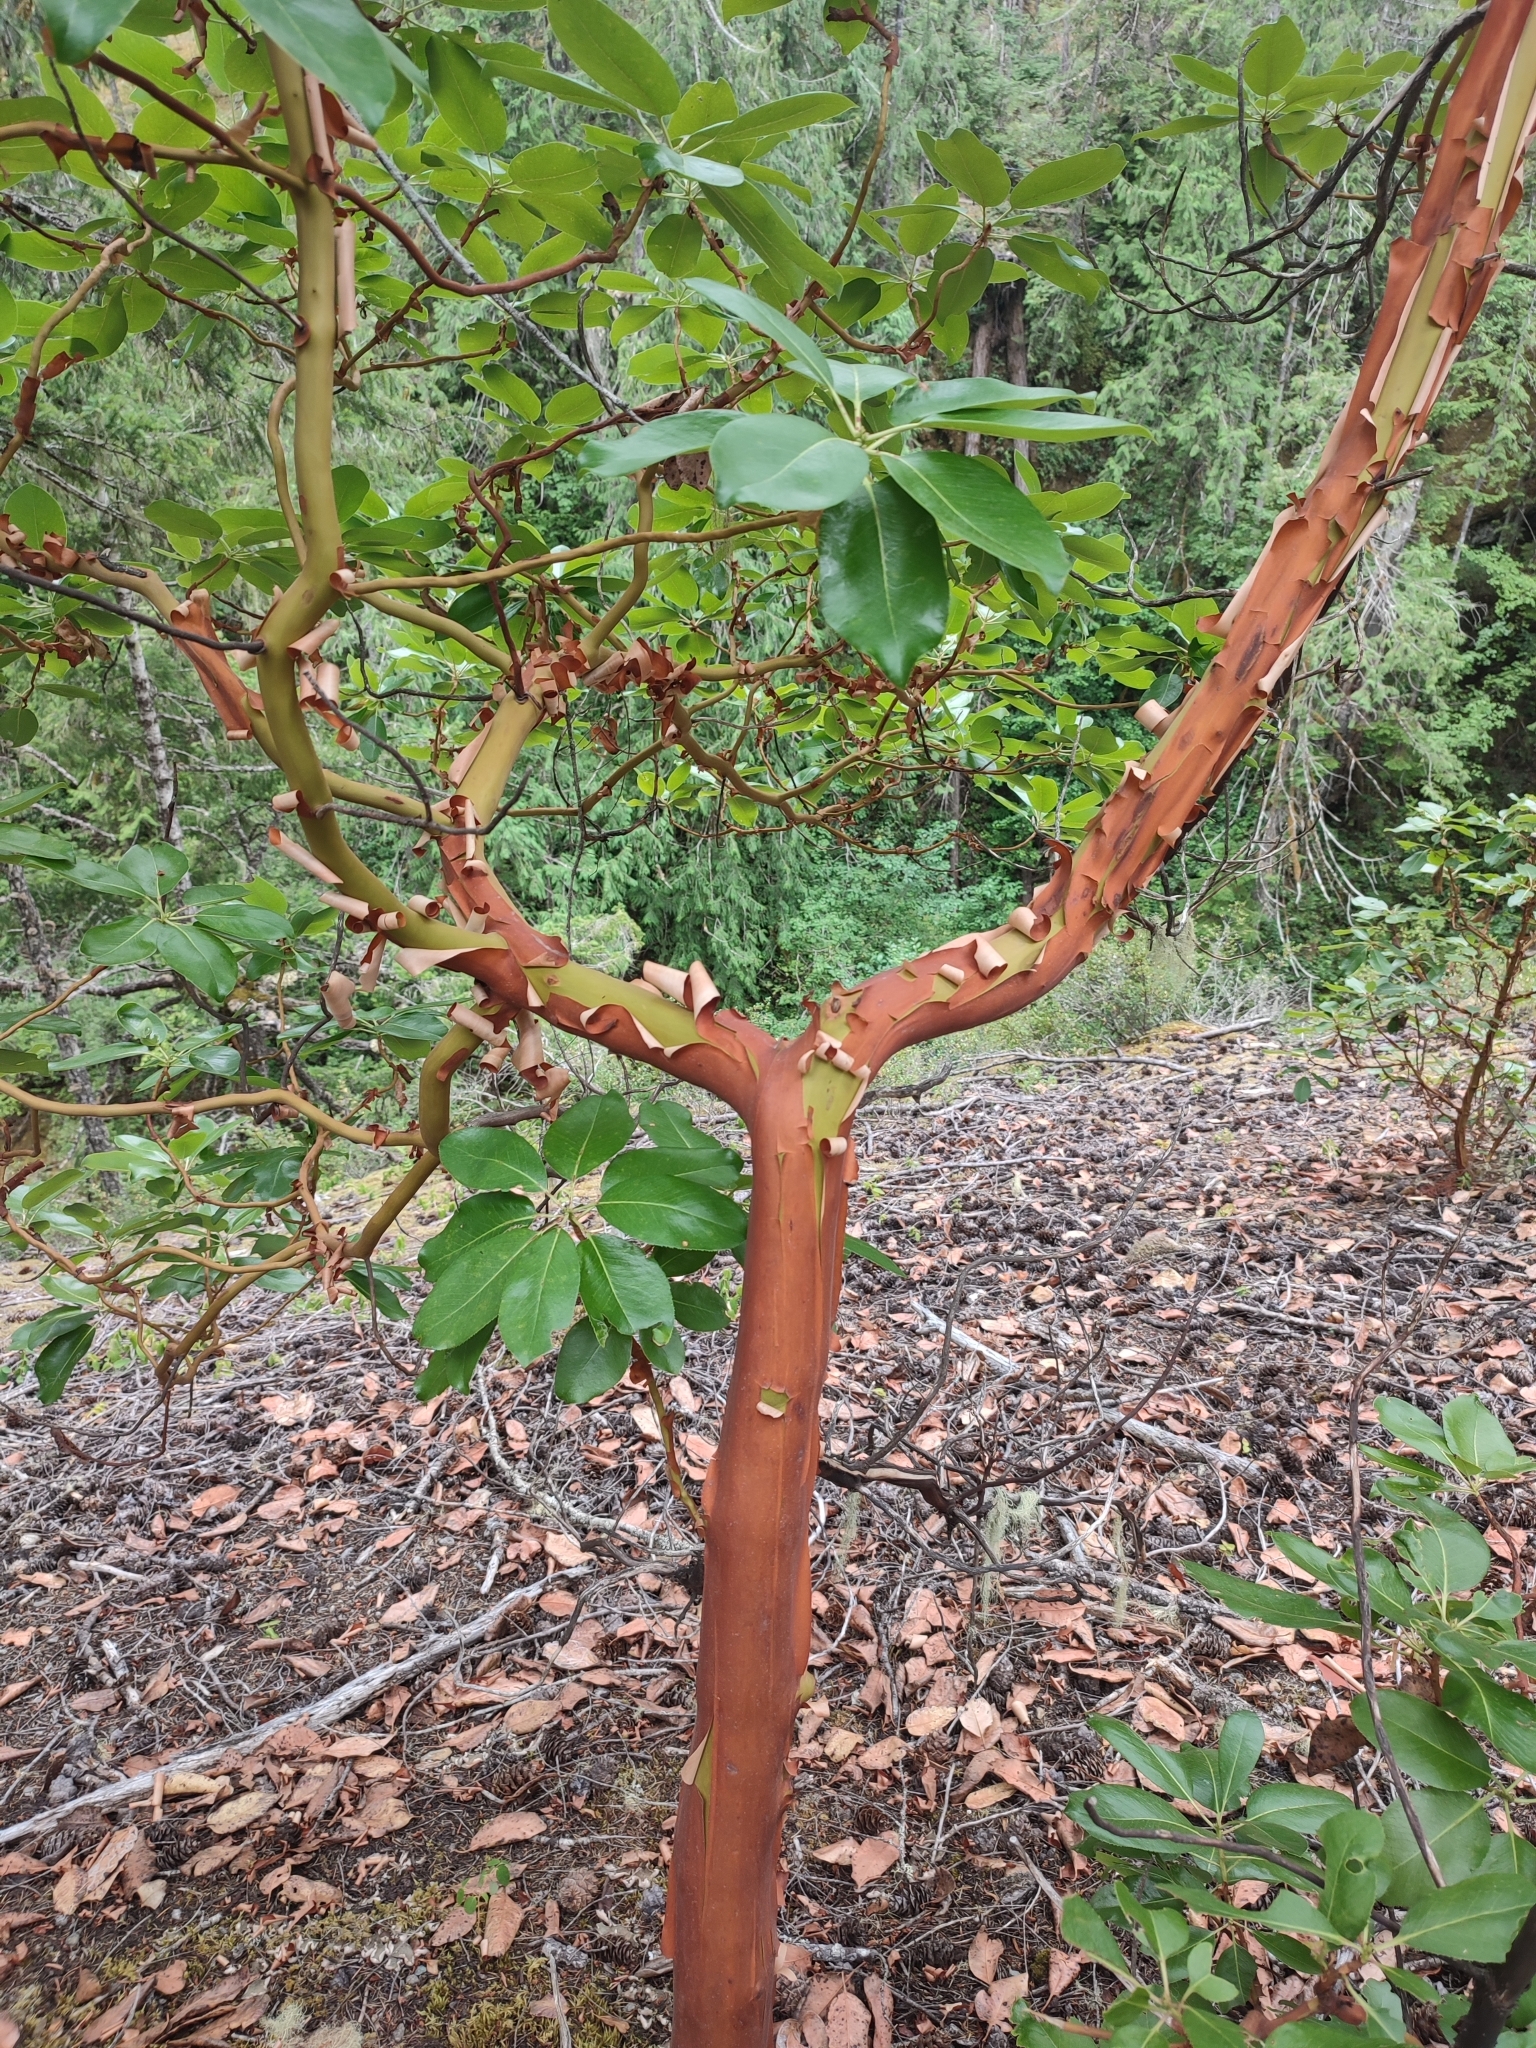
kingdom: Plantae
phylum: Tracheophyta
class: Magnoliopsida
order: Ericales
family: Ericaceae
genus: Arbutus
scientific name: Arbutus menziesii
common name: Pacific madrone
